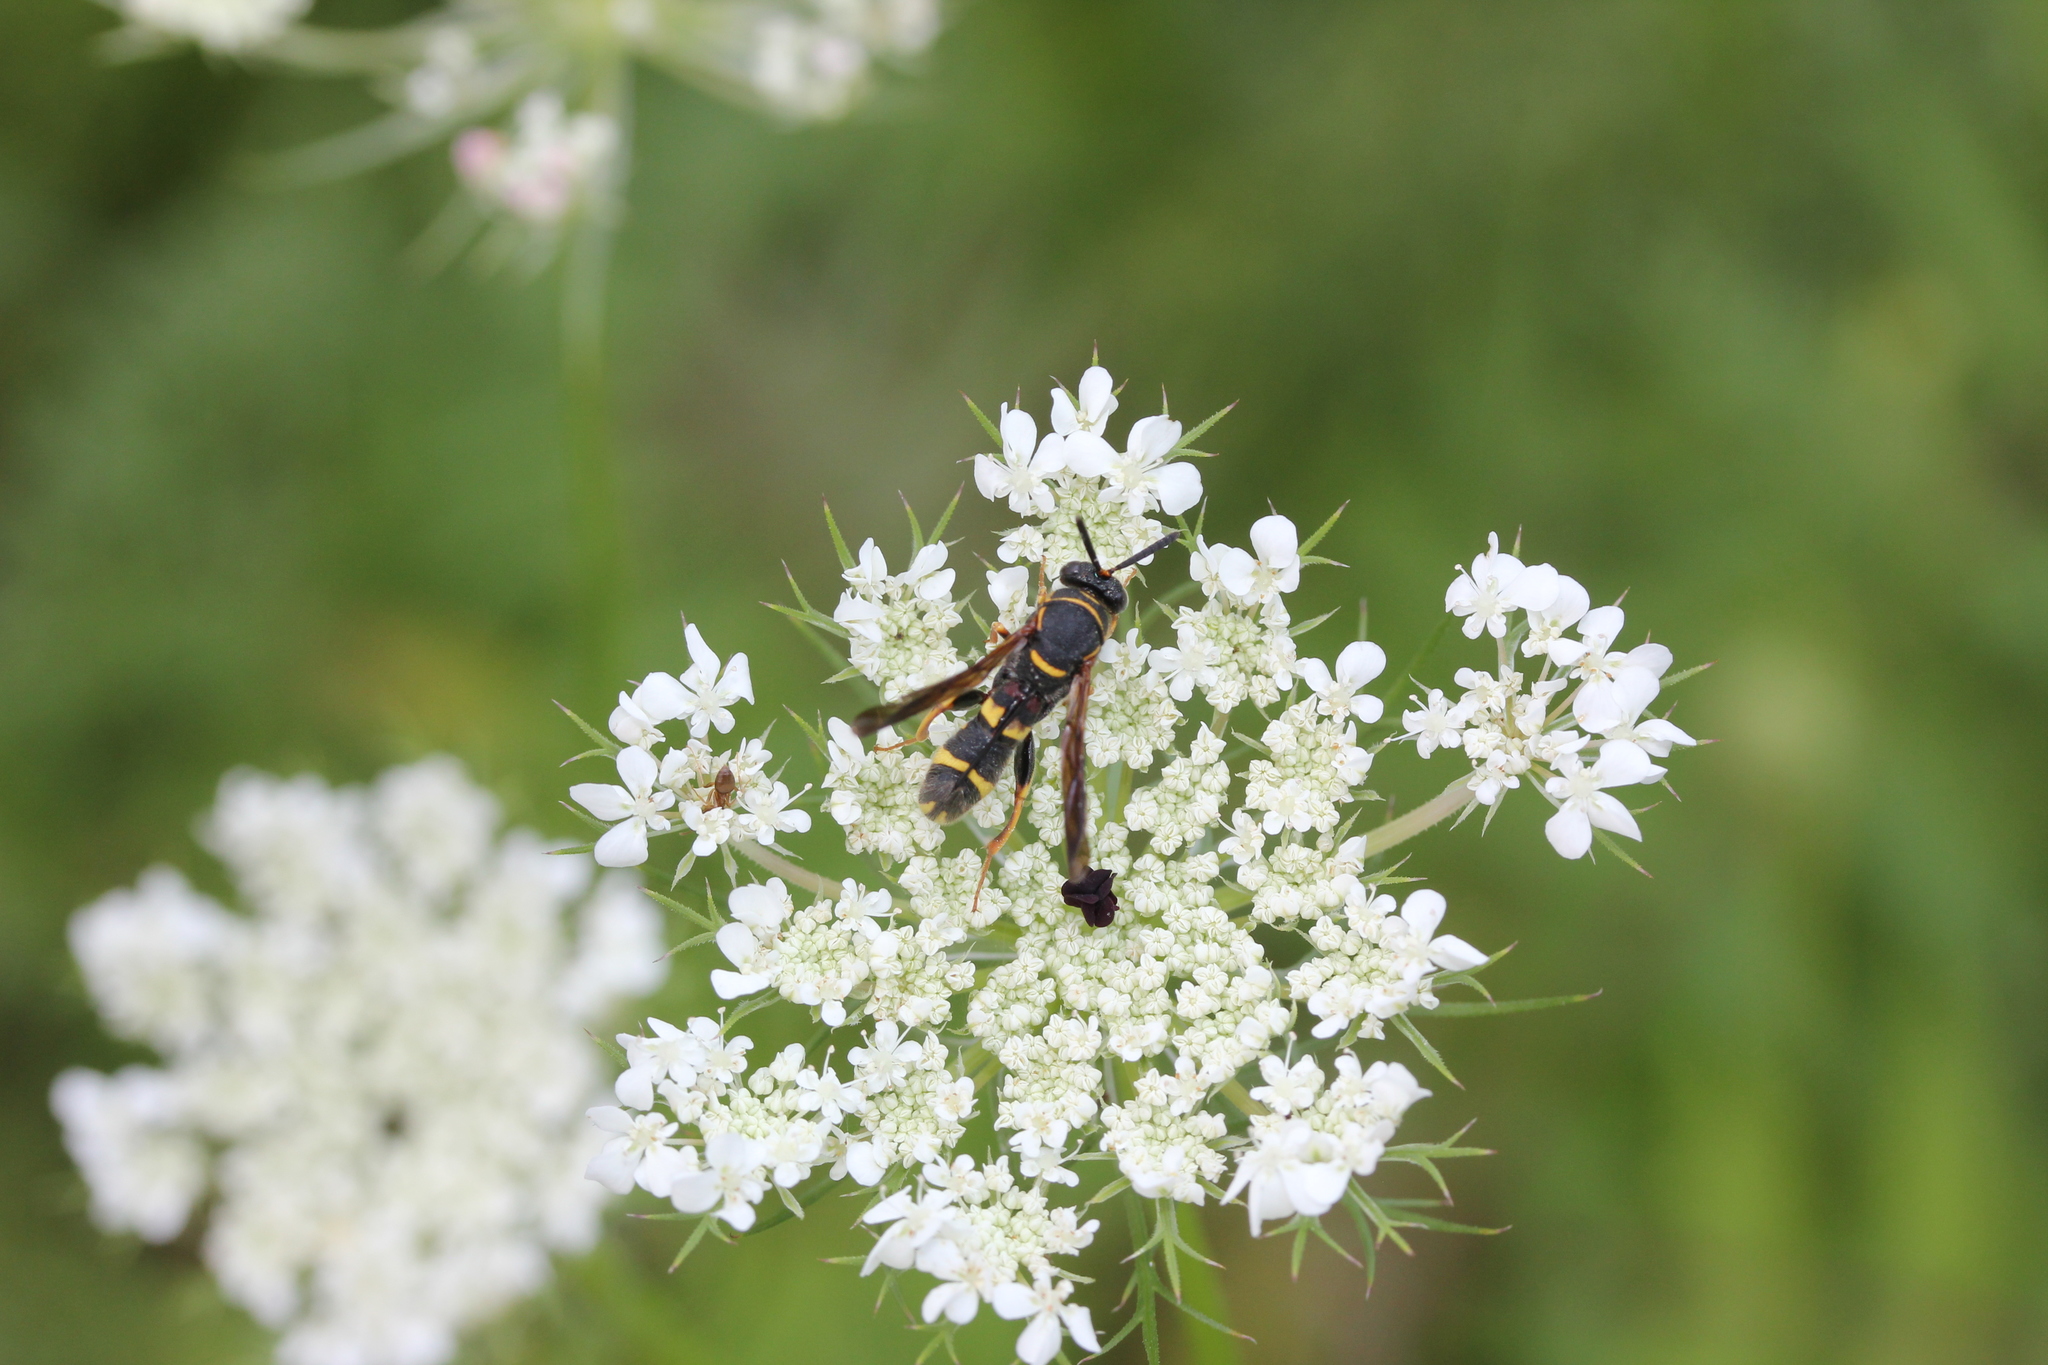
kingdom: Plantae
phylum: Tracheophyta
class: Magnoliopsida
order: Apiales
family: Apiaceae
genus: Daucus
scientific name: Daucus carota
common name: Wild carrot
